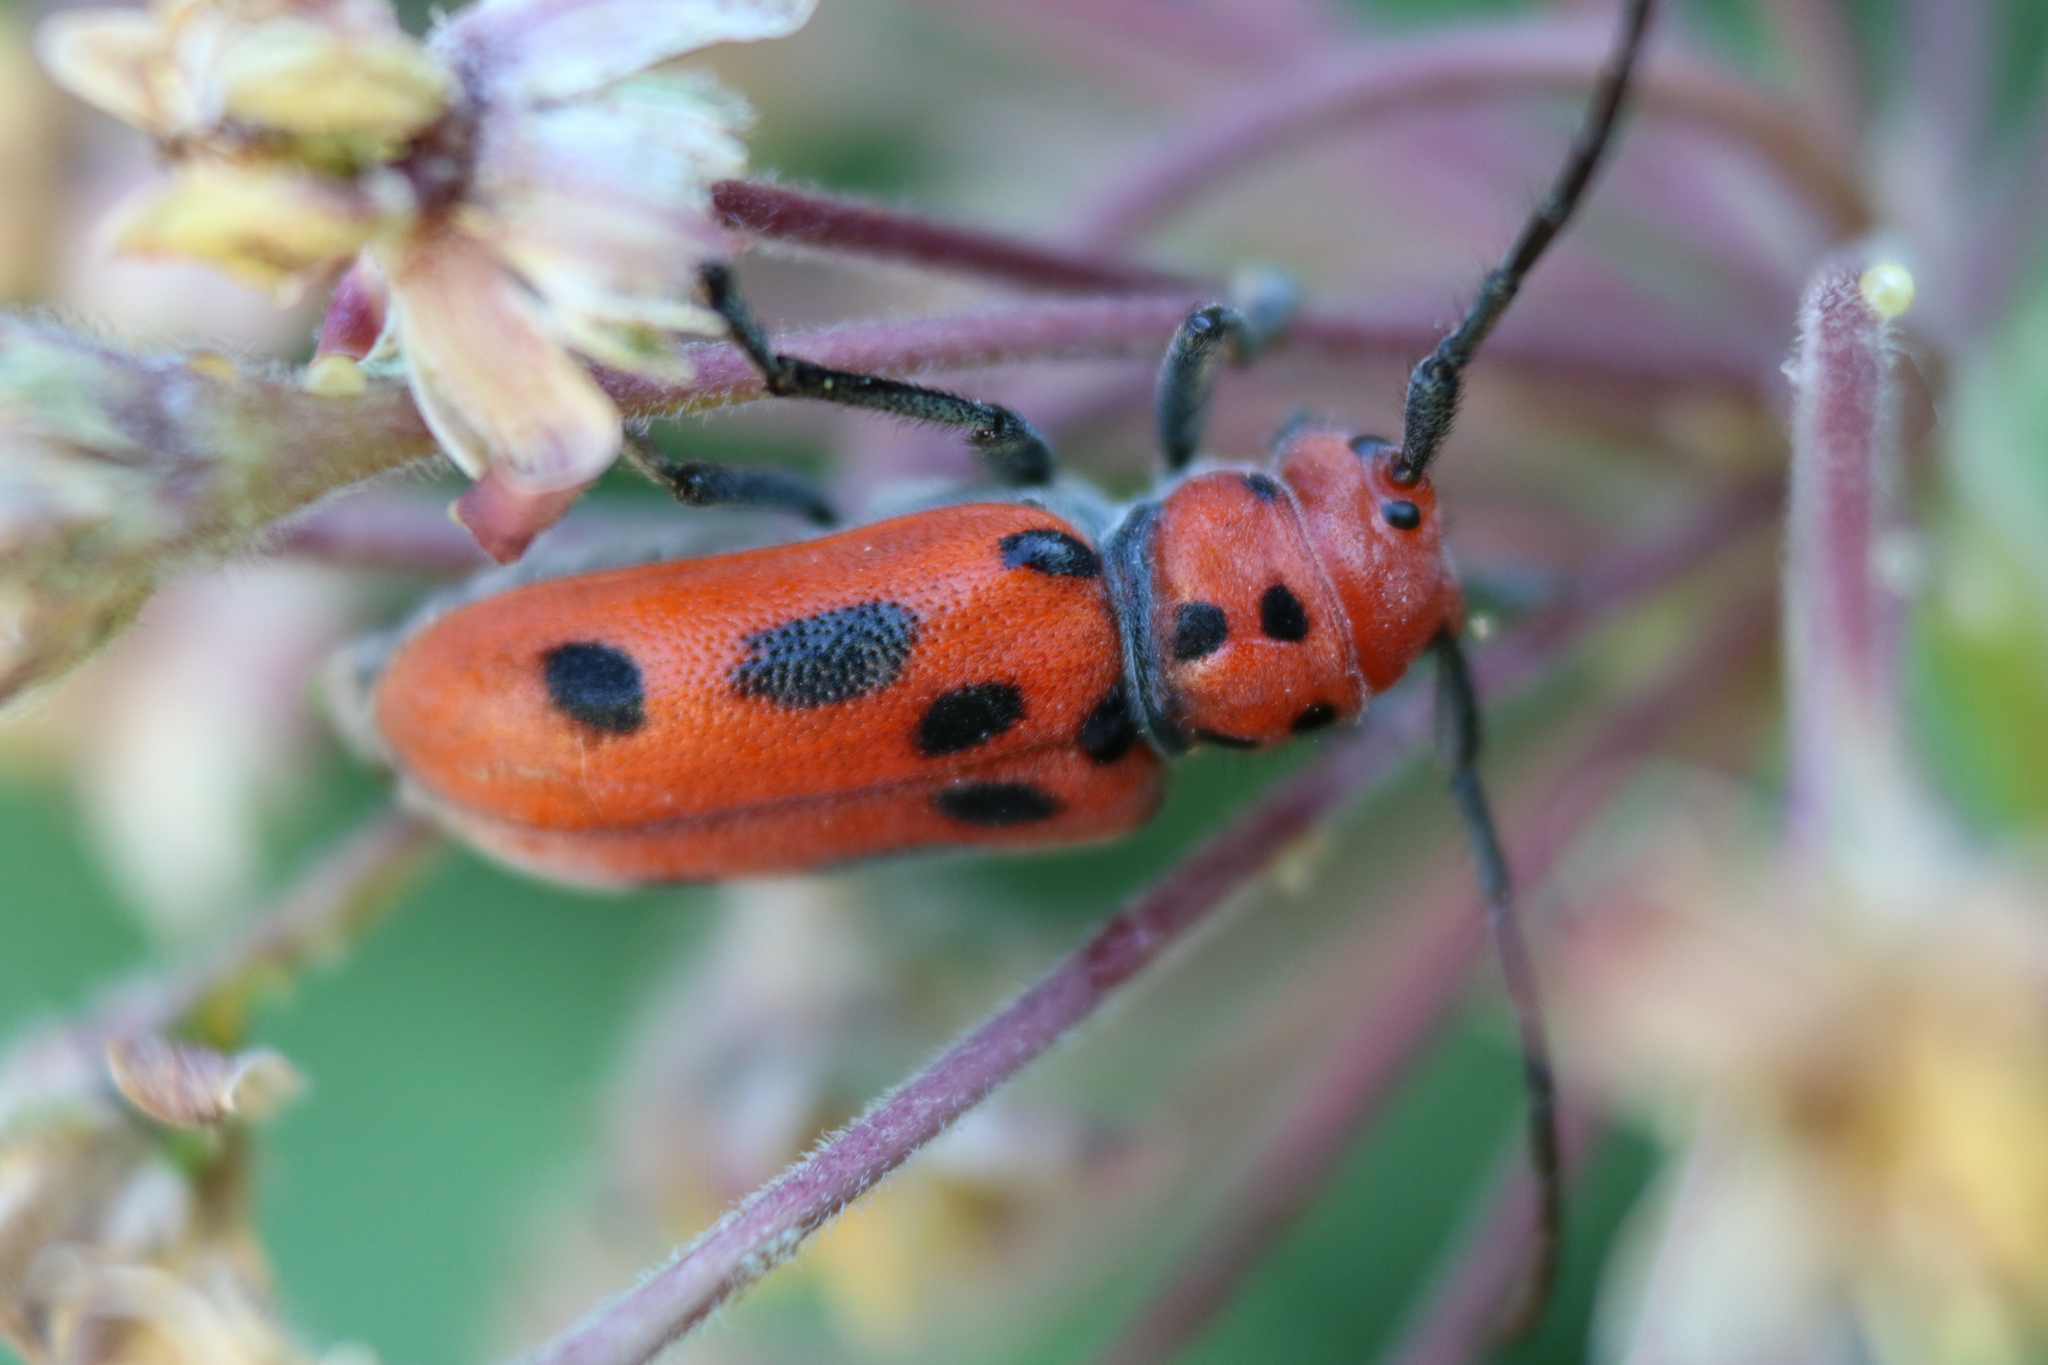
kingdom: Animalia
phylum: Arthropoda
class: Insecta
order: Coleoptera
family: Cerambycidae
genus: Tetraopes
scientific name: Tetraopes tetrophthalmus
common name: Red milkweed beetle
